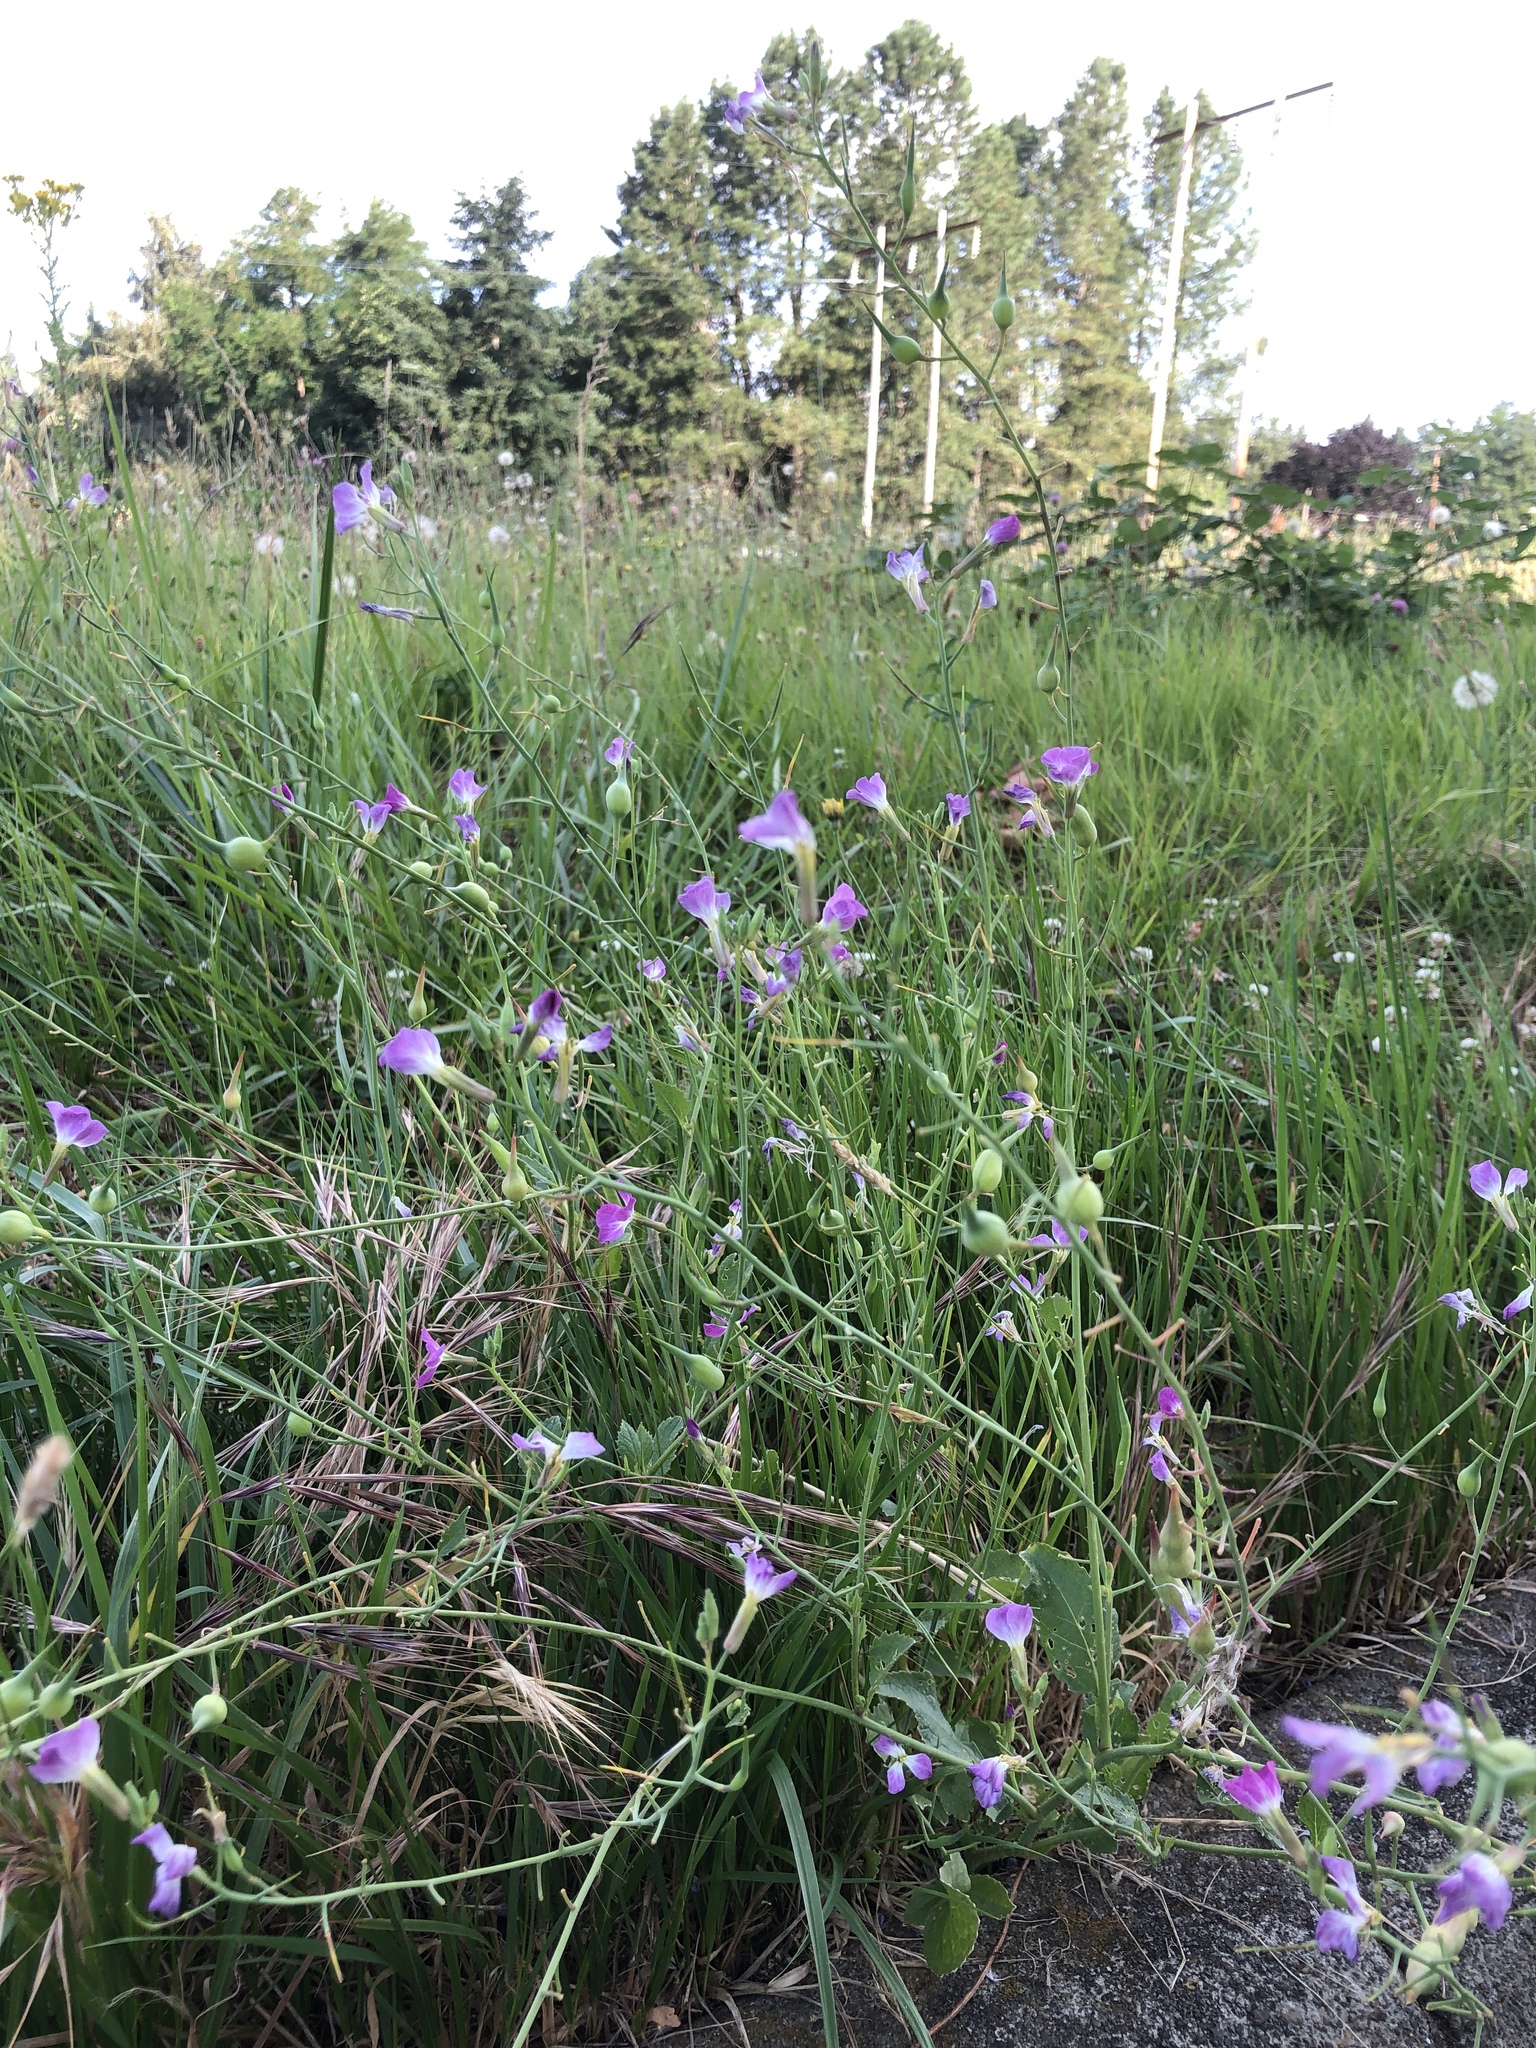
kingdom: Plantae
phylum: Tracheophyta
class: Magnoliopsida
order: Brassicales
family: Brassicaceae
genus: Raphanus
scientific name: Raphanus sativus
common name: Cultivated radish
